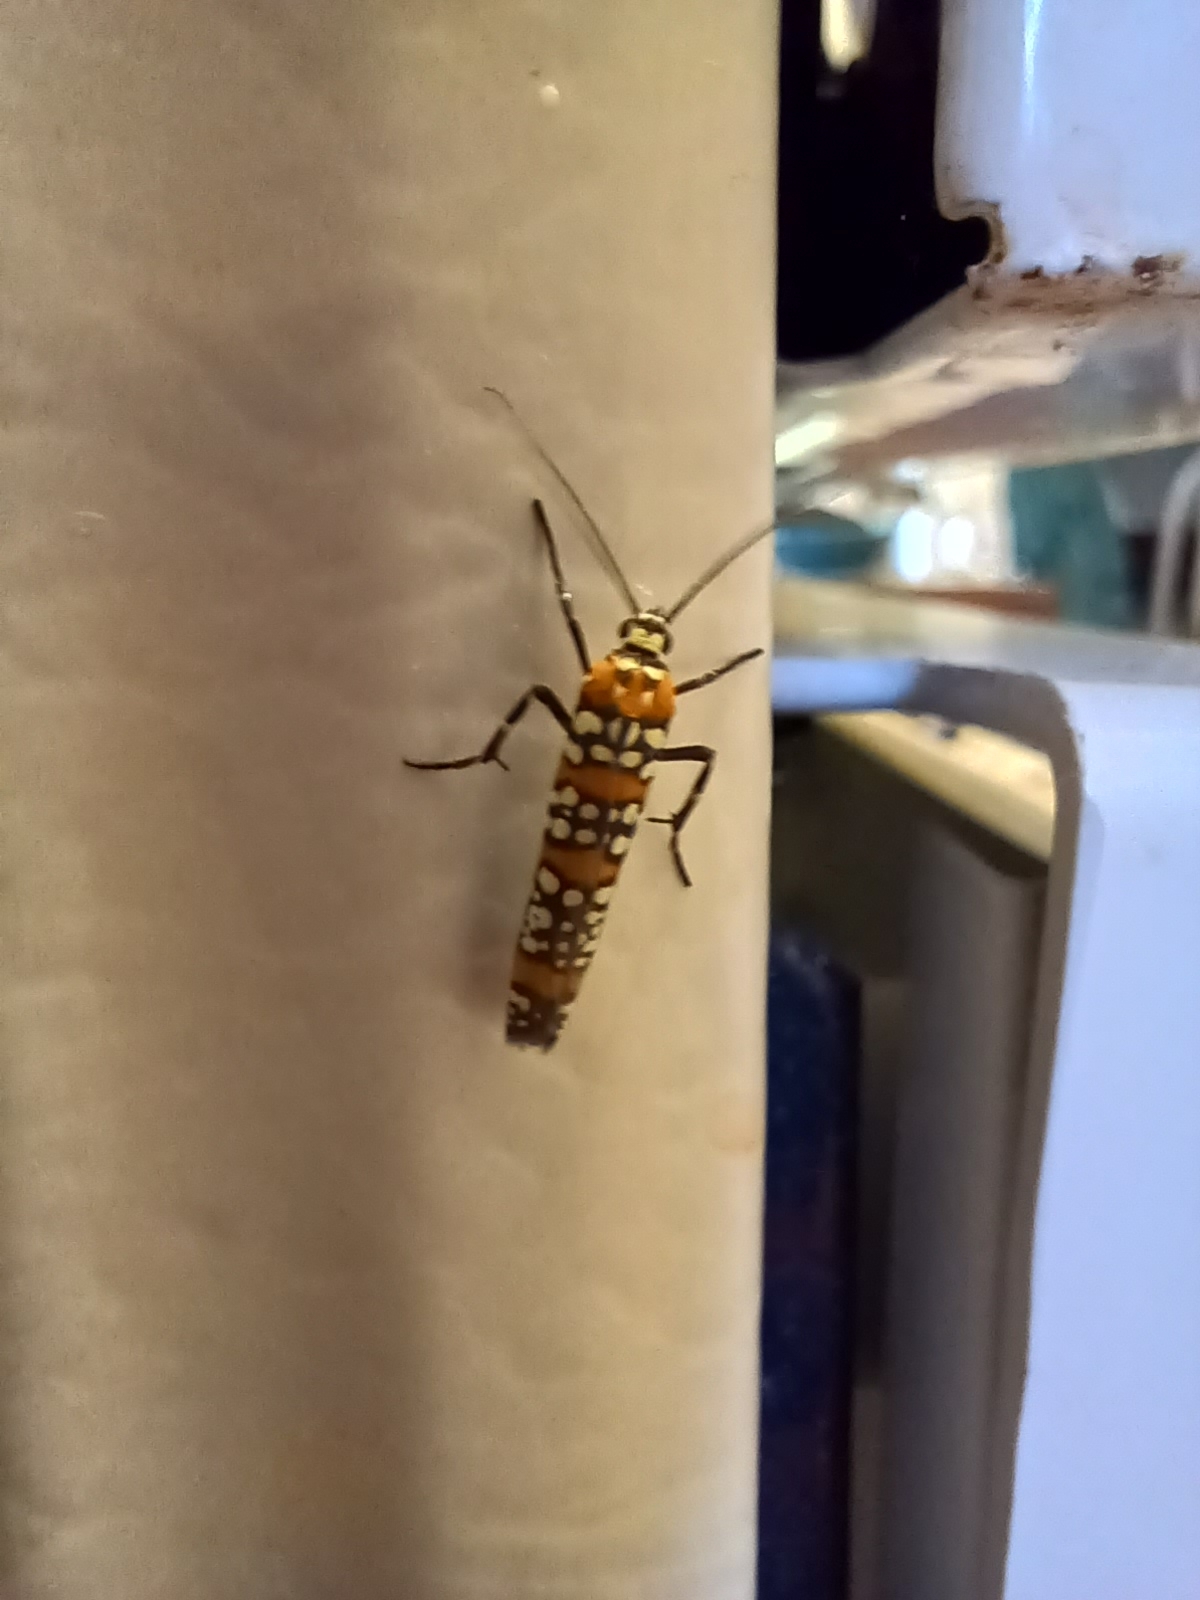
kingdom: Animalia
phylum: Arthropoda
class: Insecta
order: Lepidoptera
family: Attevidae
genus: Atteva
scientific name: Atteva punctella
